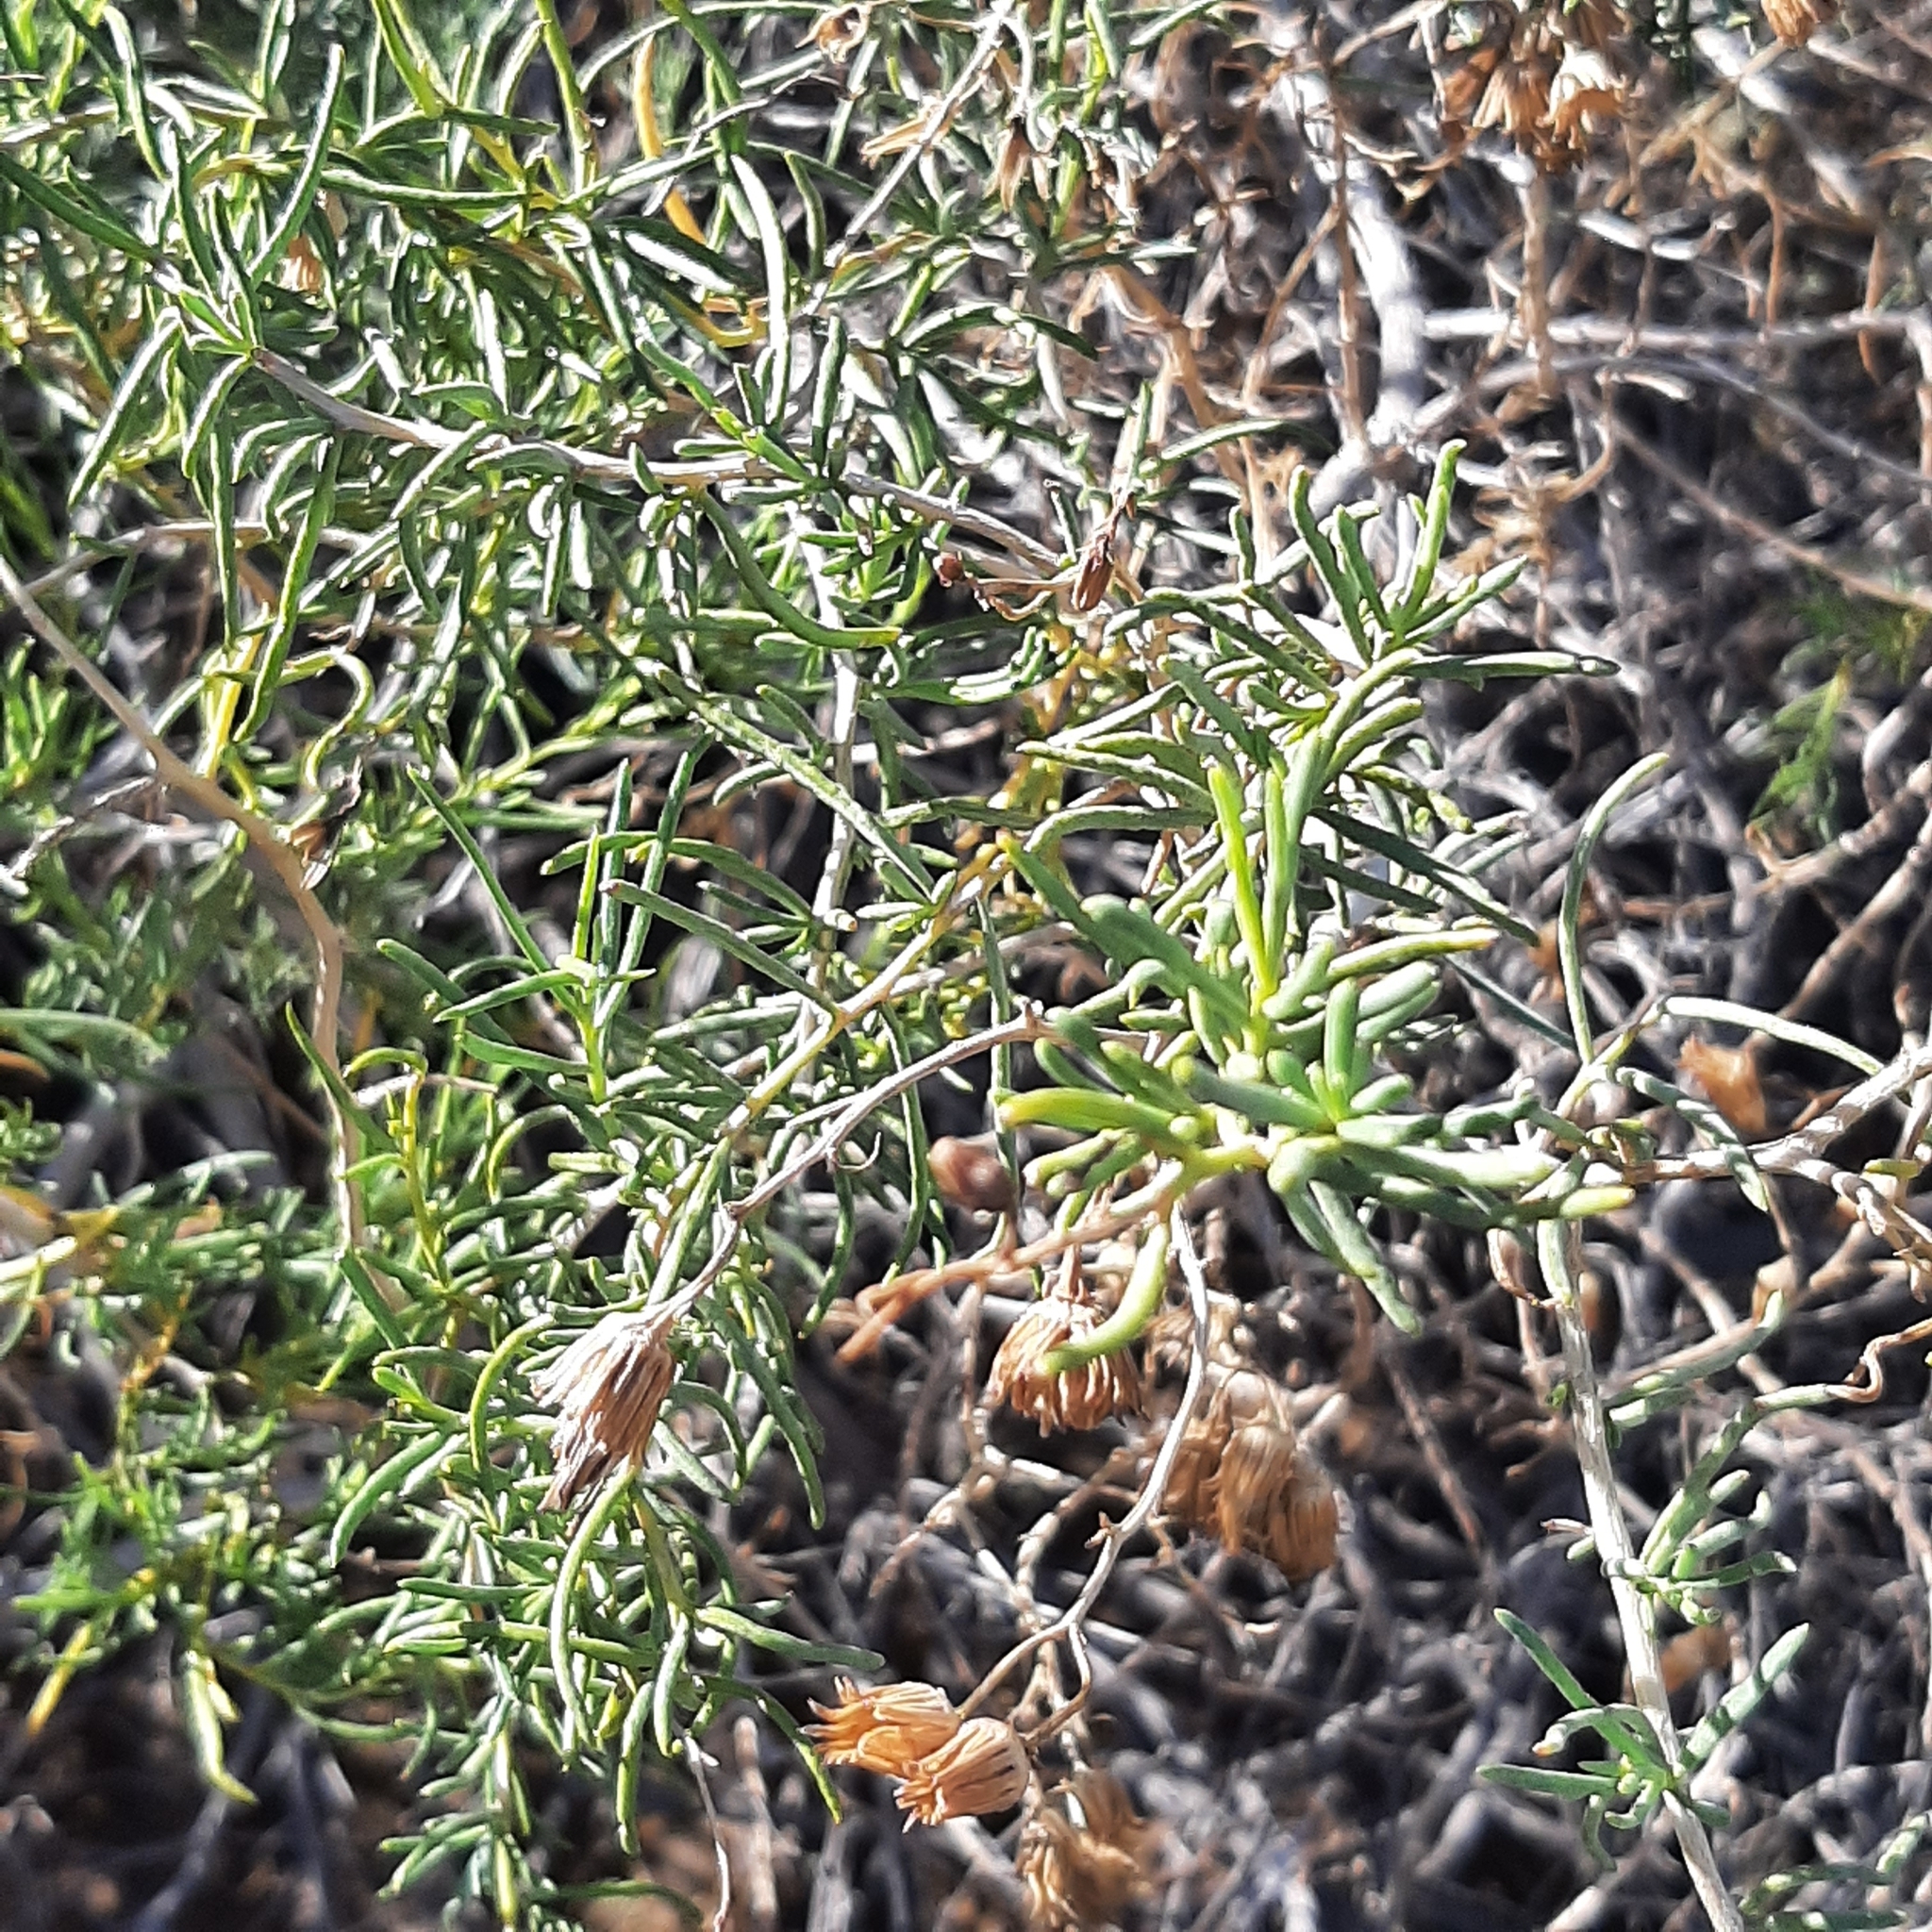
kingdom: Plantae
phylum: Tracheophyta
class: Magnoliopsida
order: Asterales
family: Asteraceae
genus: Senecio
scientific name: Senecio subulatus
